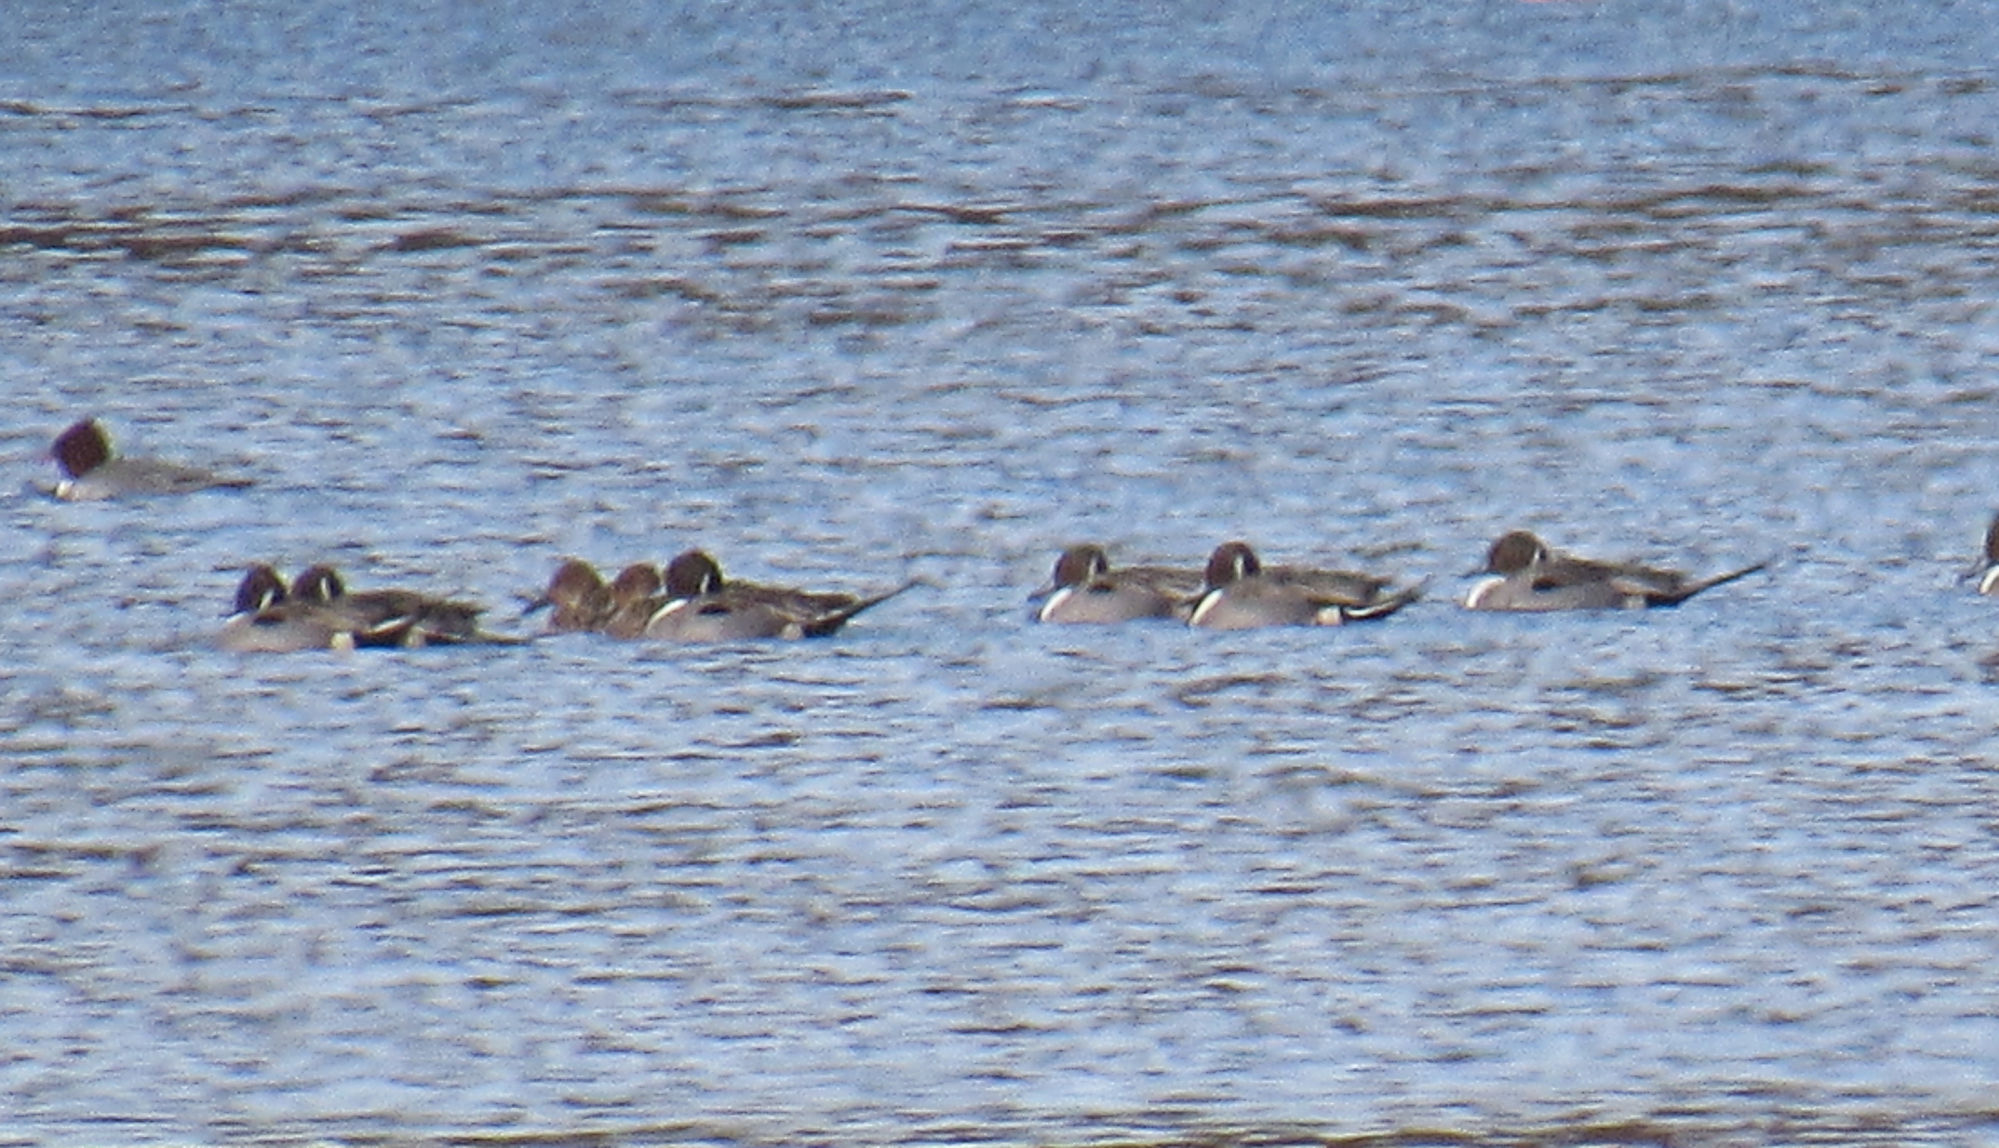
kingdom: Animalia
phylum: Chordata
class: Aves
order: Anseriformes
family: Anatidae
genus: Anas
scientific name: Anas acuta
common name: Northern pintail
